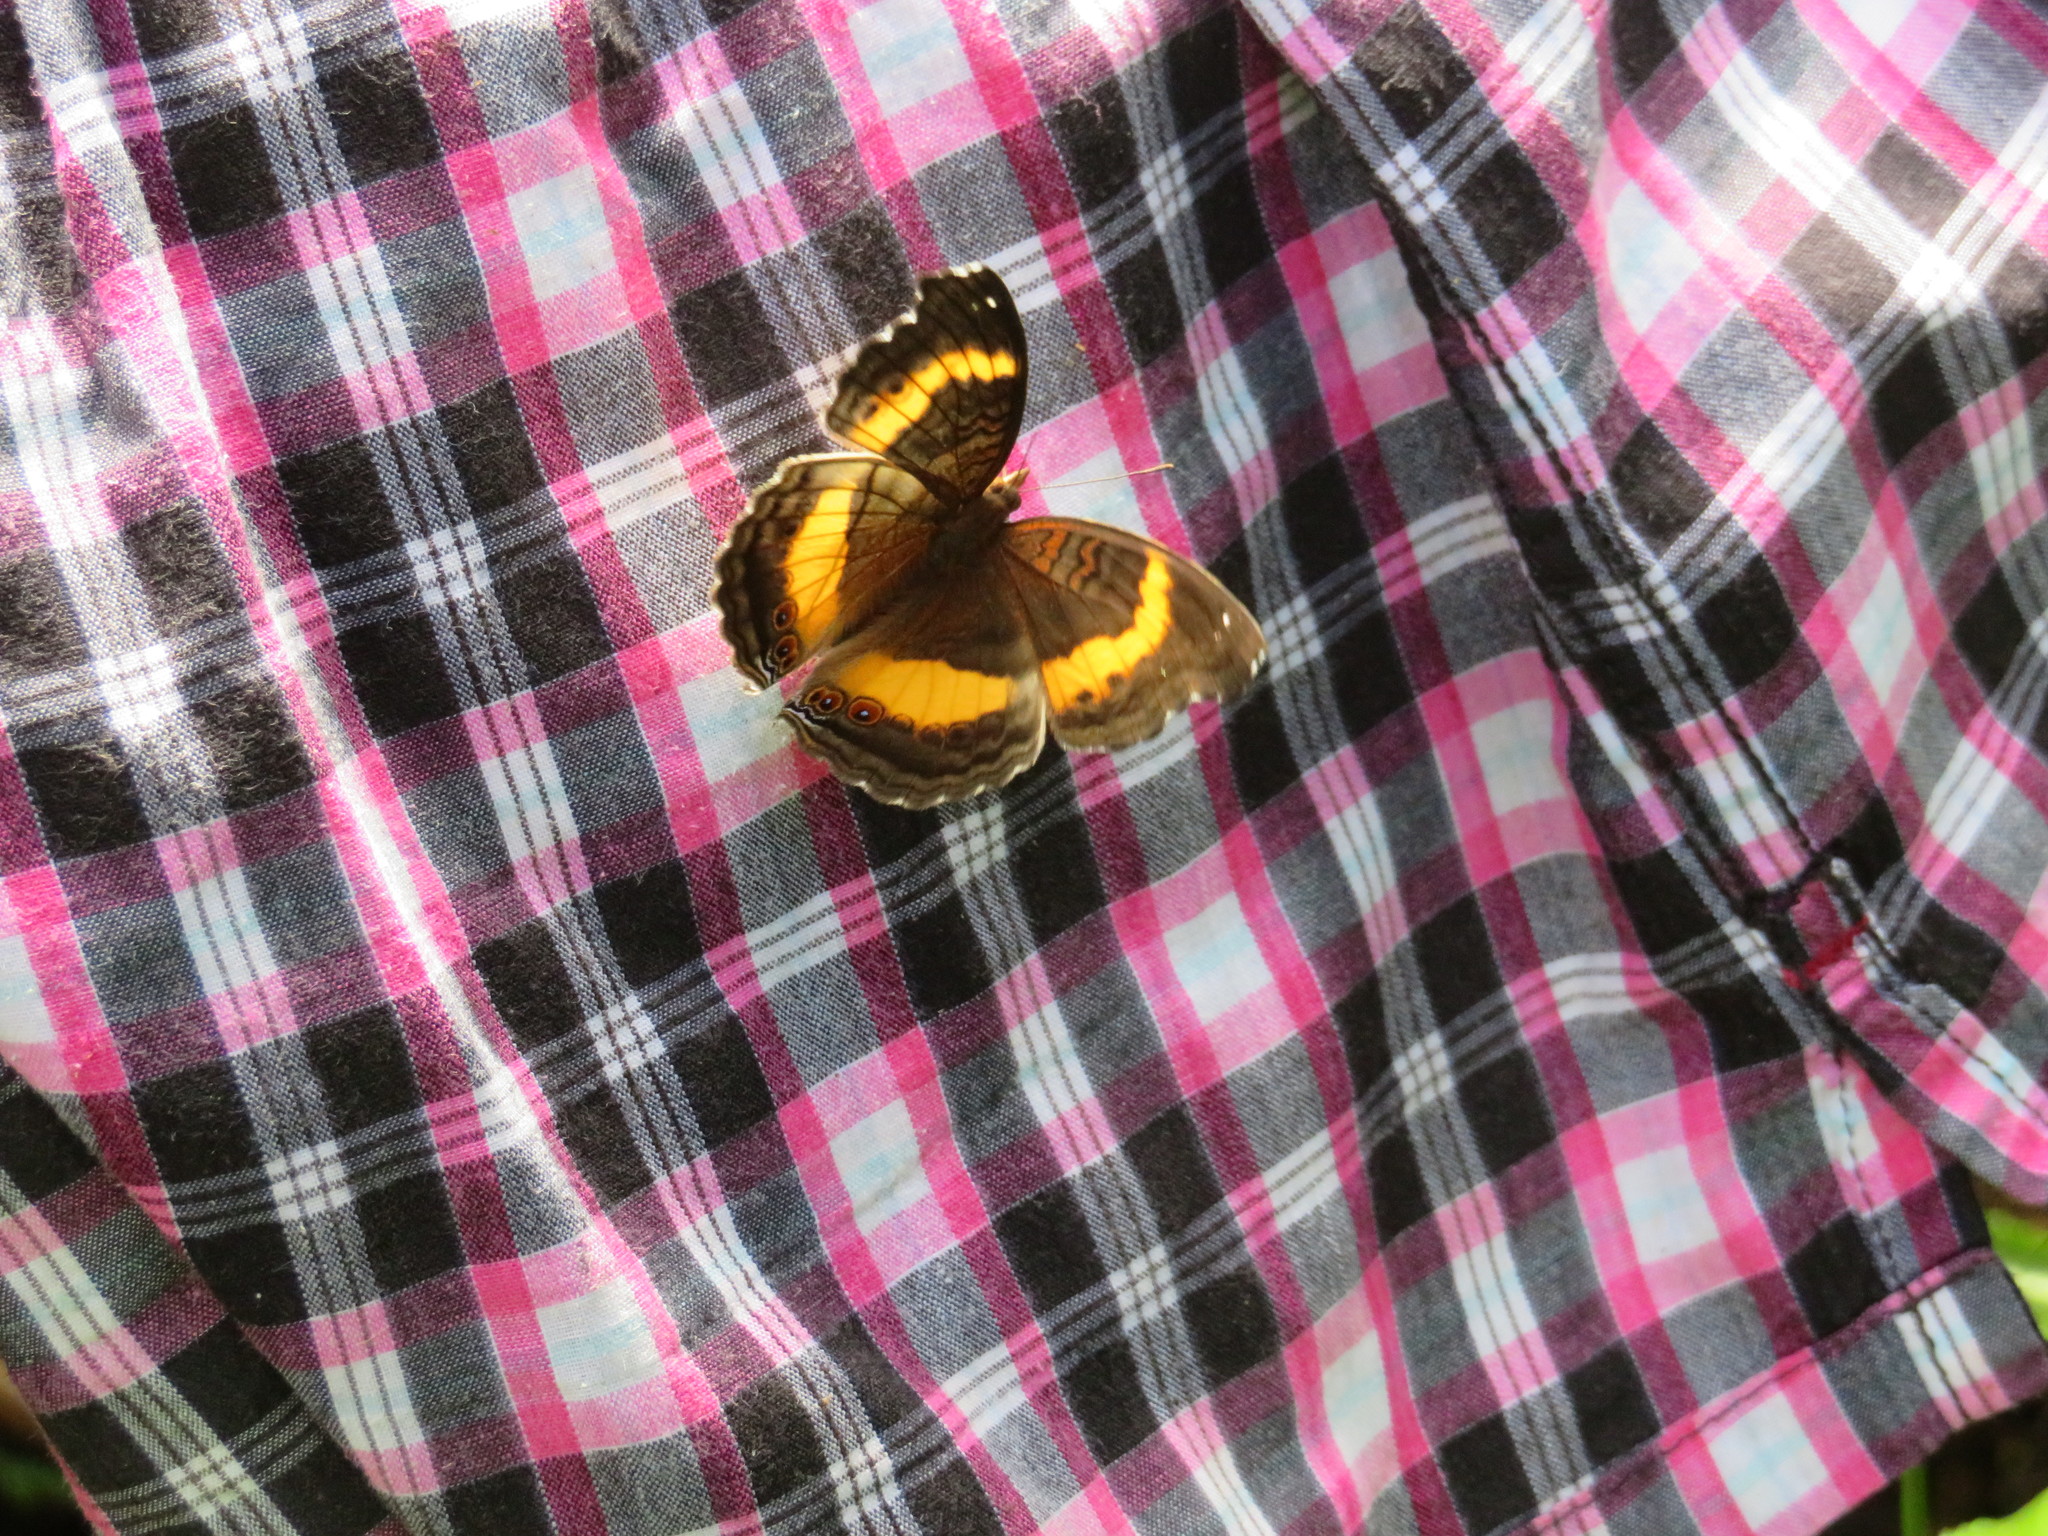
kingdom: Animalia
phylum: Arthropoda
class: Insecta
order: Lepidoptera
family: Nymphalidae
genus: Junonia
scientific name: Junonia terea
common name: Soldier pansy
